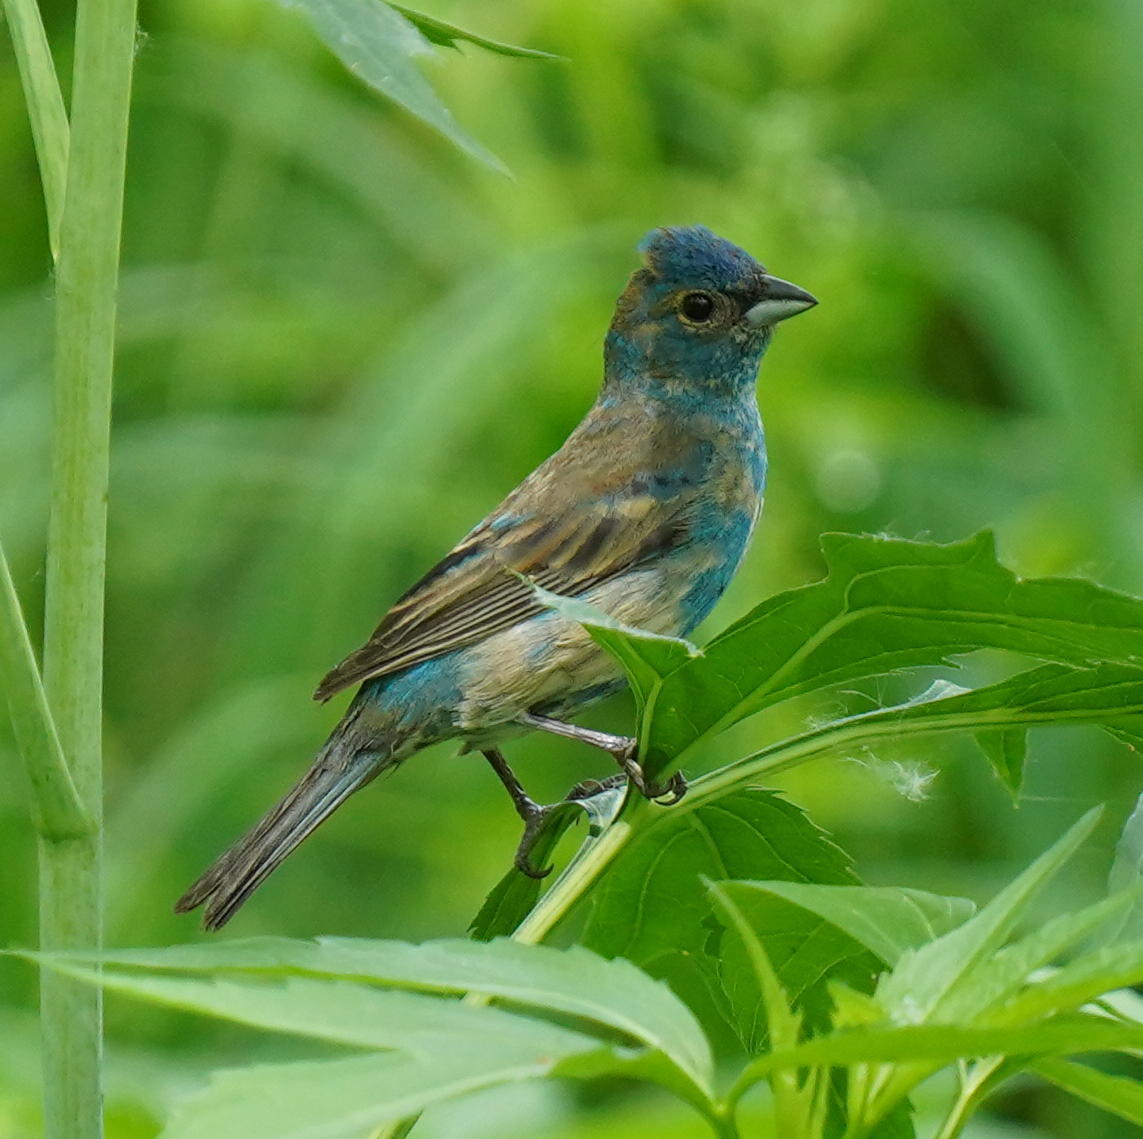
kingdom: Animalia
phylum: Chordata
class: Aves
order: Passeriformes
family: Cardinalidae
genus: Passerina
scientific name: Passerina cyanea
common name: Indigo bunting
